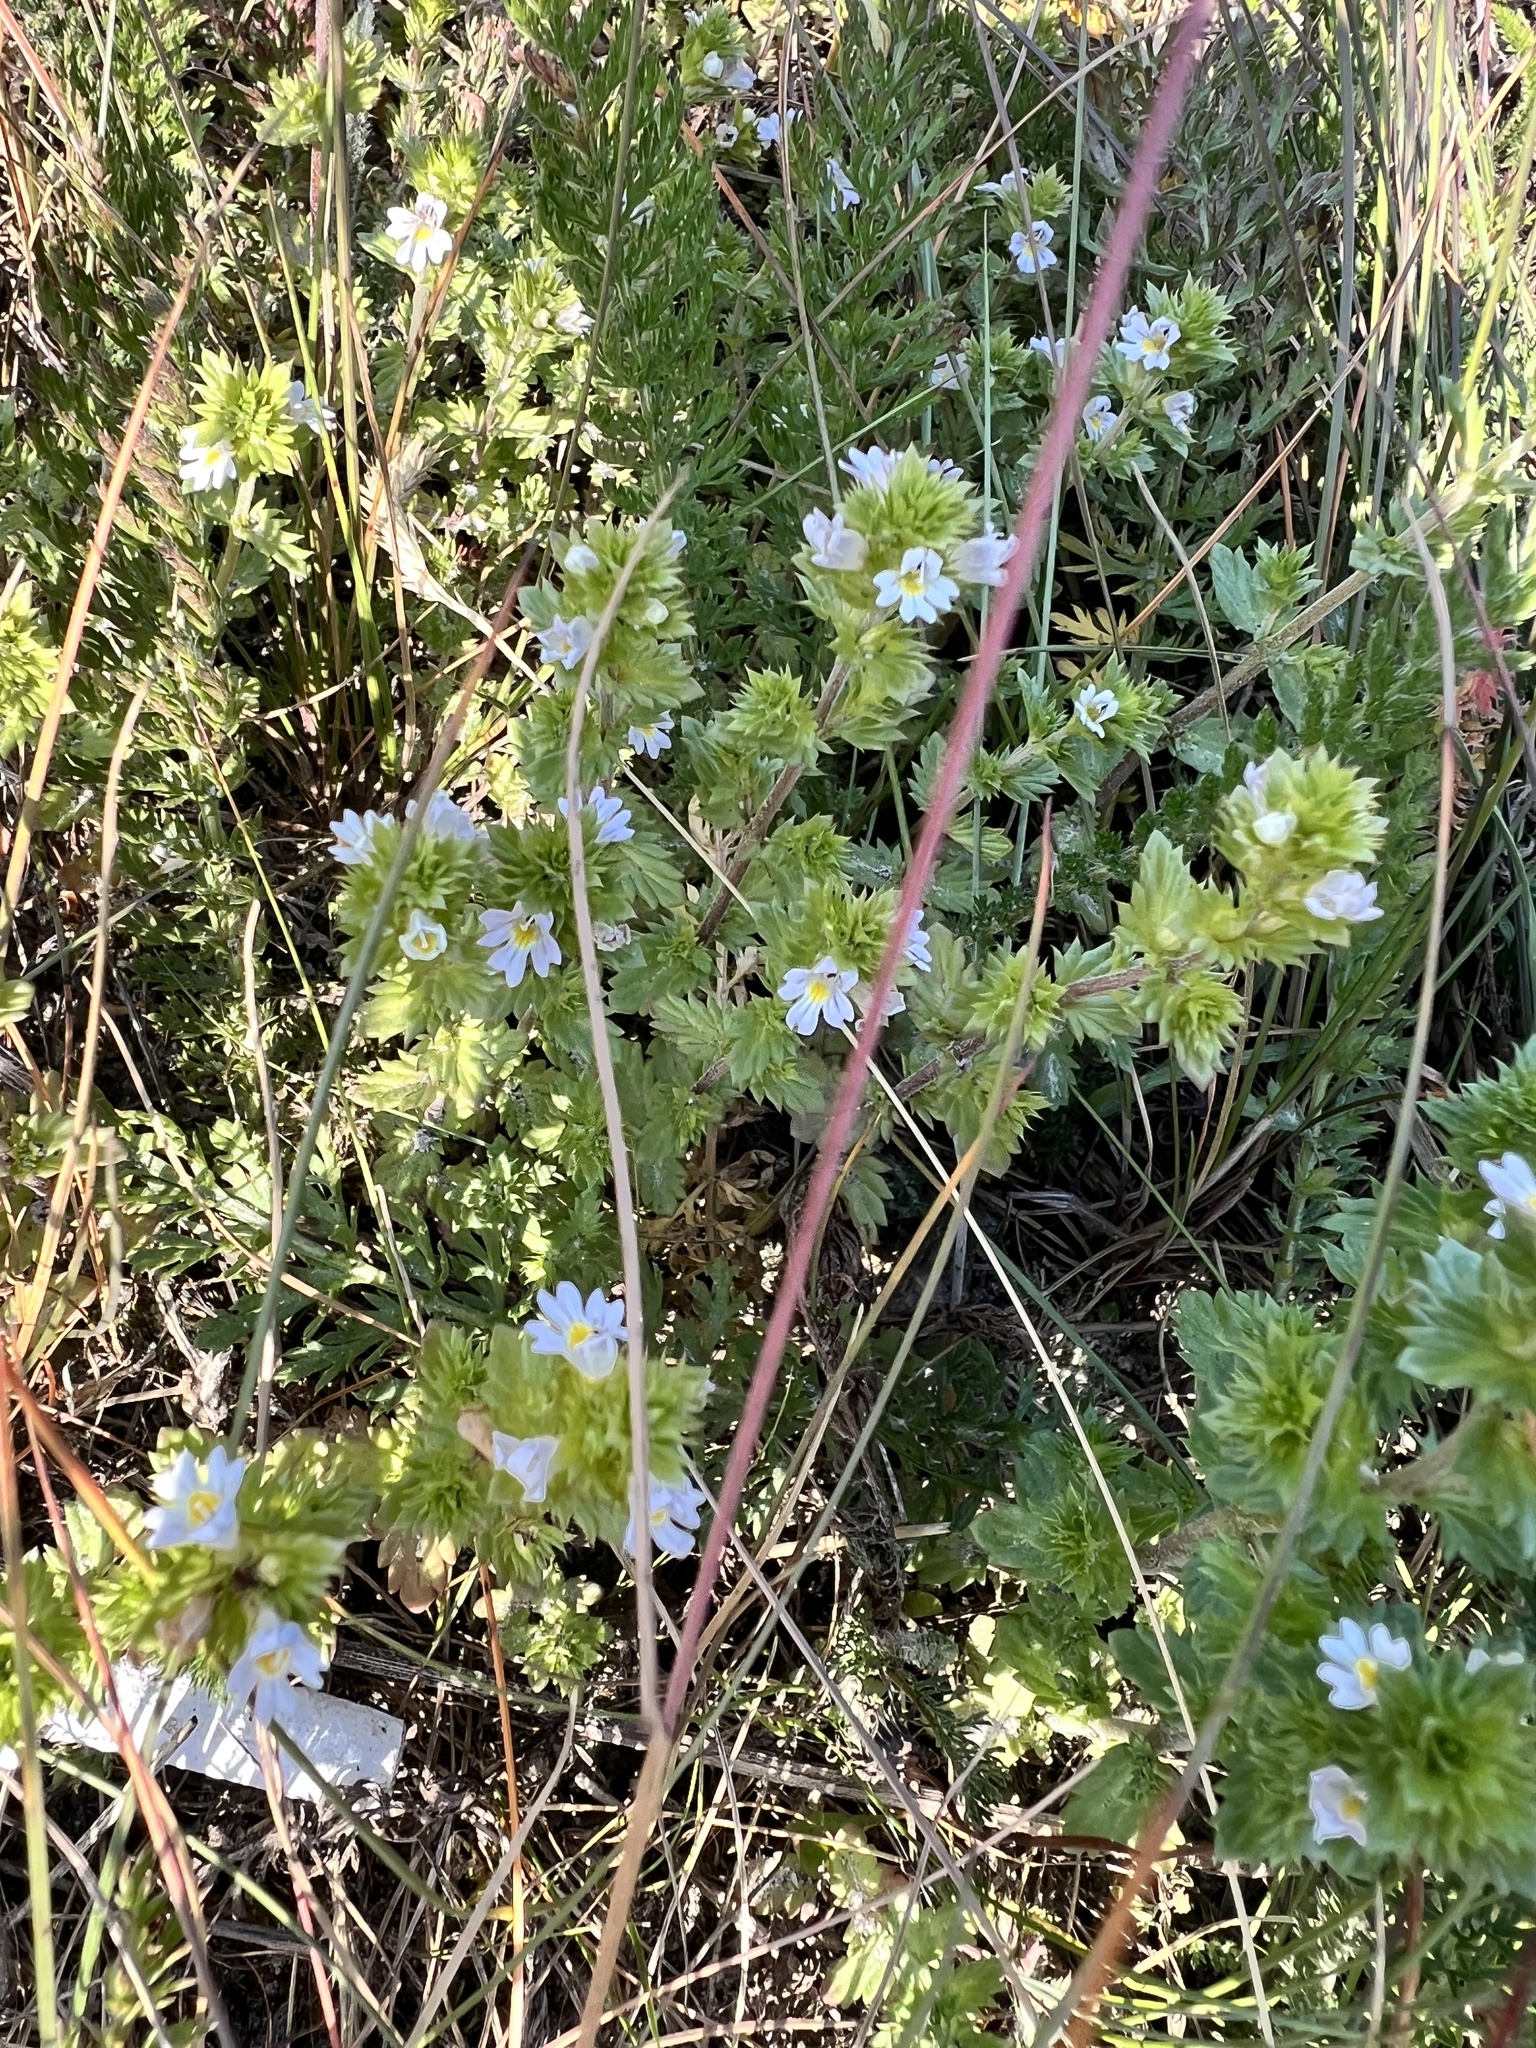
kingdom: Plantae
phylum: Tracheophyta
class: Magnoliopsida
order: Lamiales
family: Orobanchaceae
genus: Euphrasia
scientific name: Euphrasia nemorosa
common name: Common eyebright
